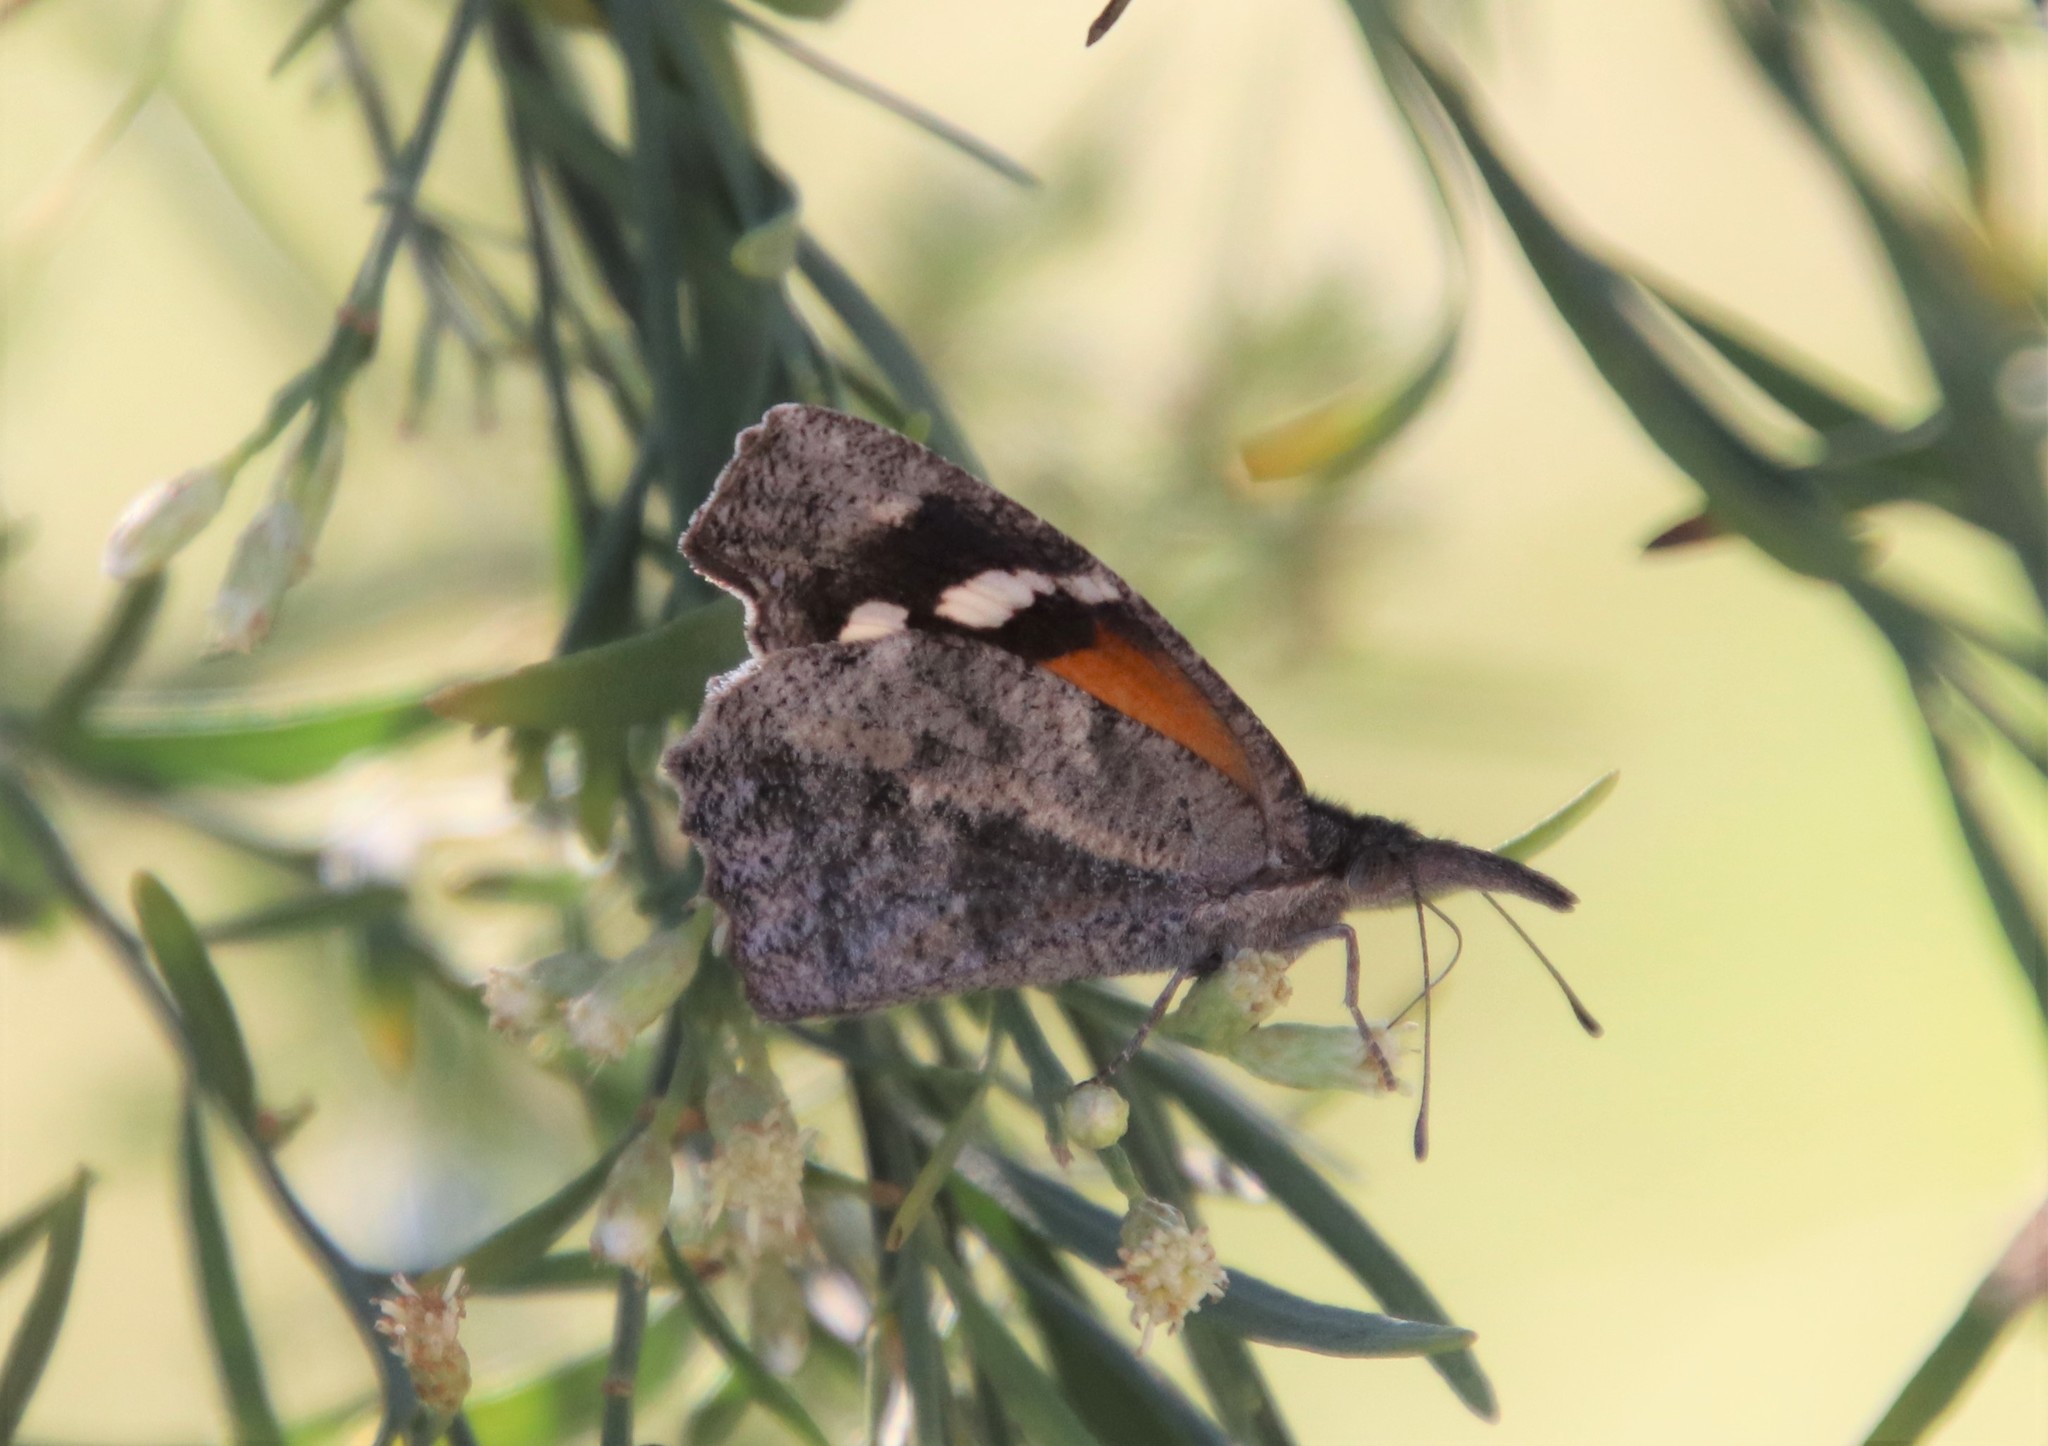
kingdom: Animalia
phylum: Arthropoda
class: Insecta
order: Lepidoptera
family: Nymphalidae
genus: Libytheana
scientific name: Libytheana carinenta
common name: American snout
